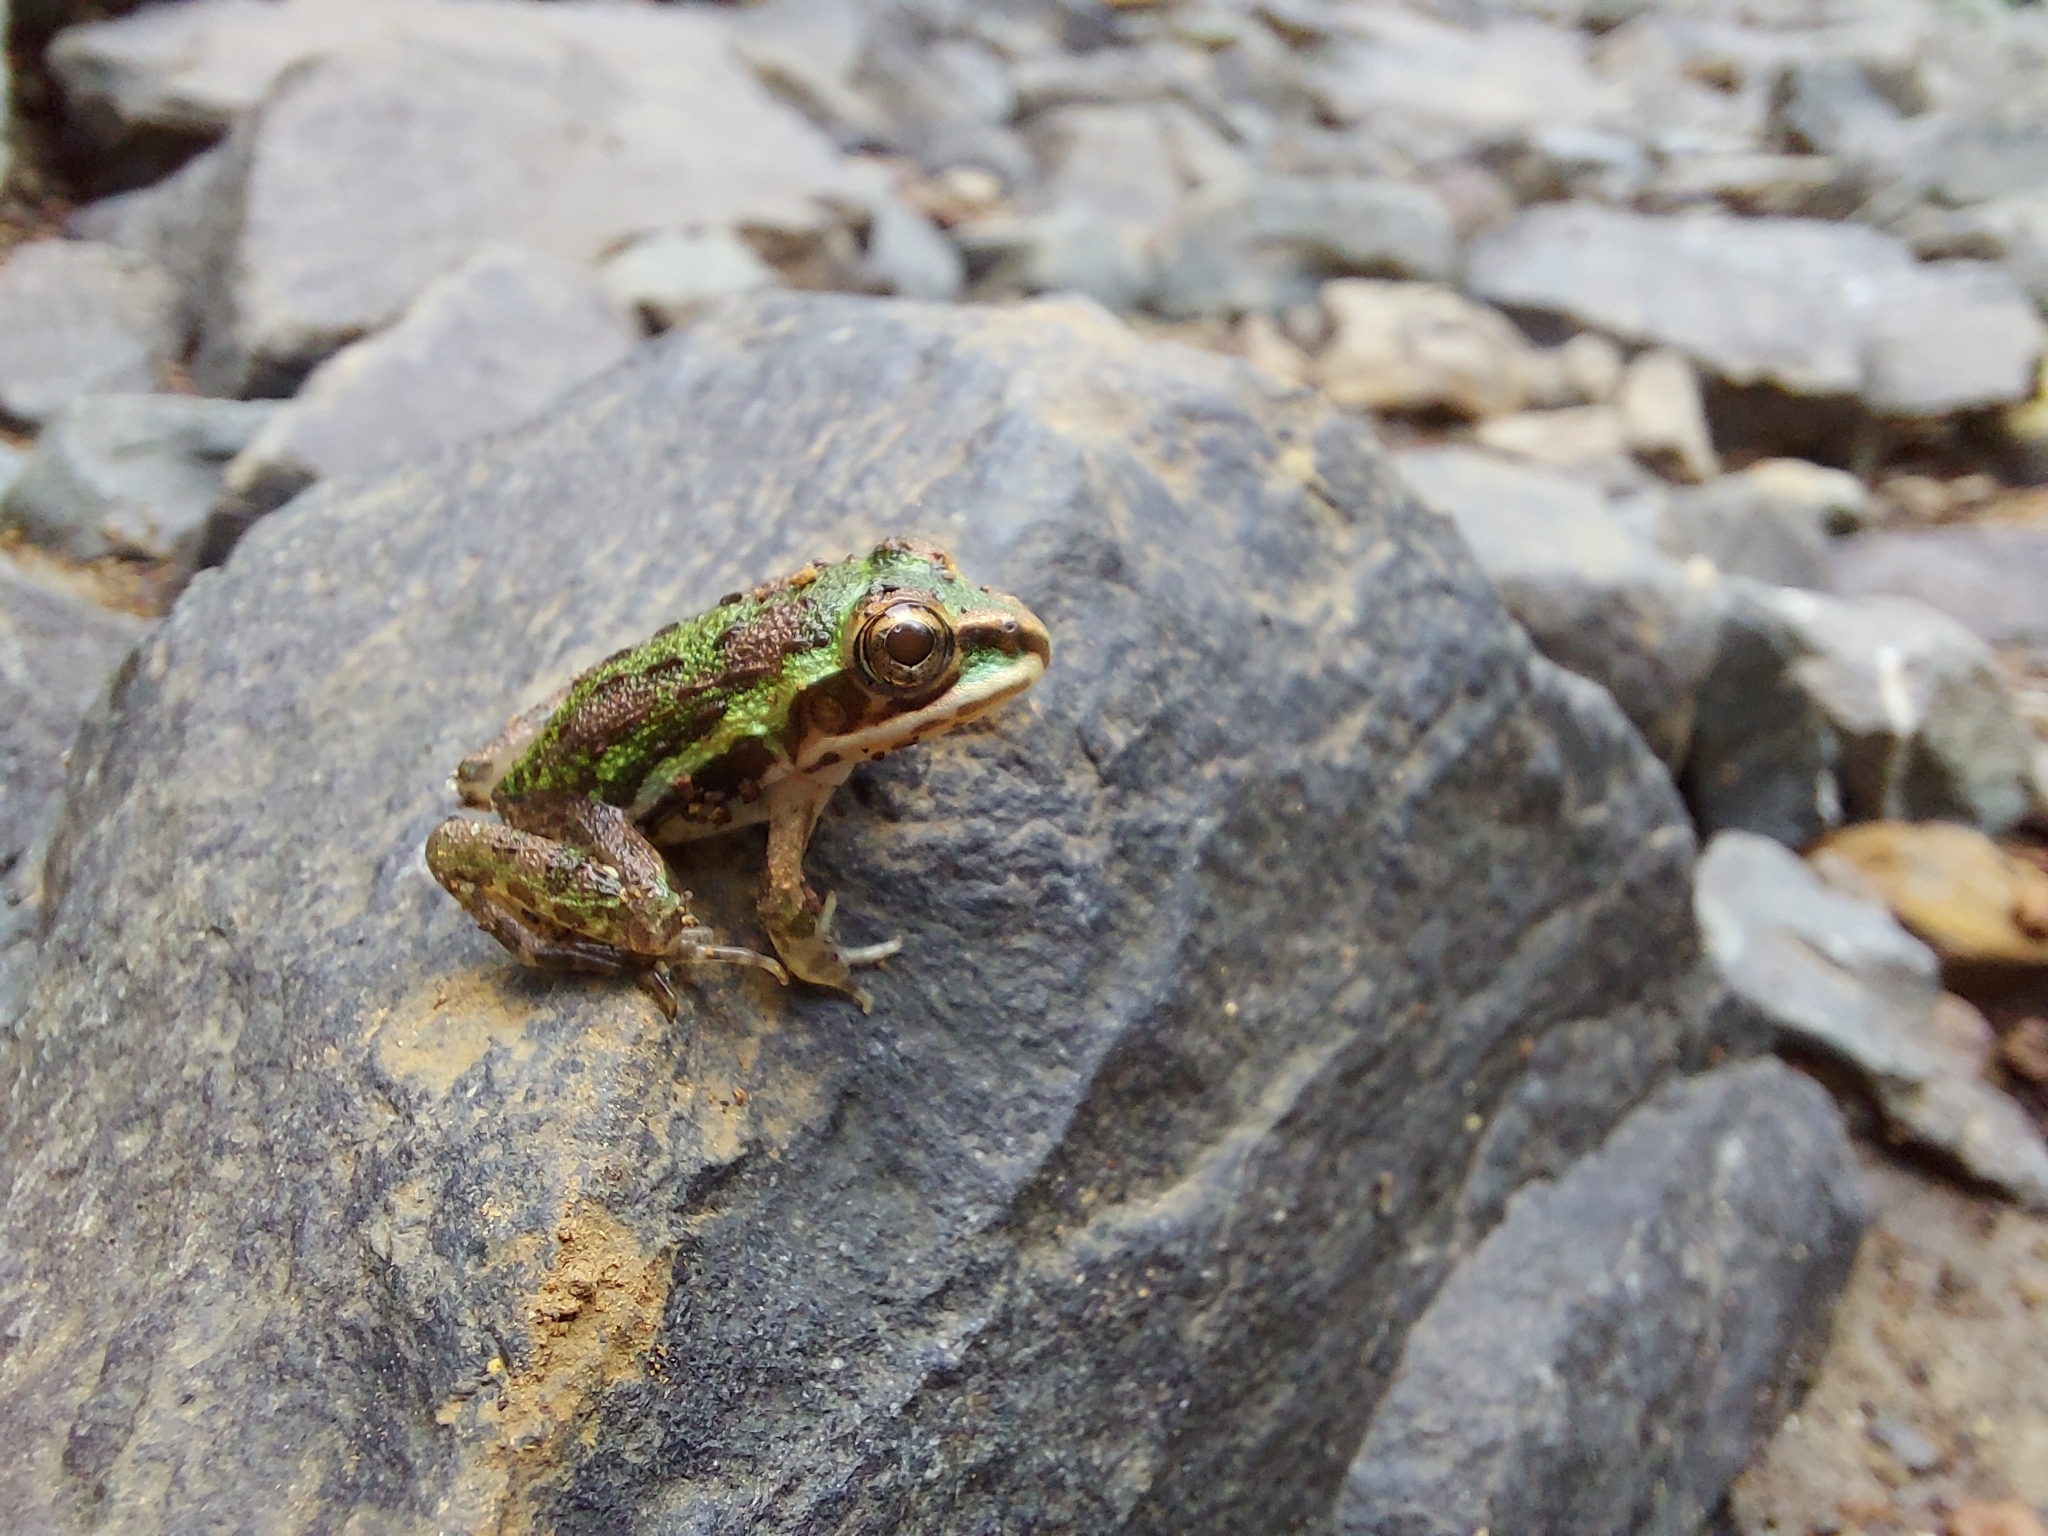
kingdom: Animalia
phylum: Chordata
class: Amphibia
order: Anura
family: Dicroglossidae
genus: Hoplobatrachus
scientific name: Hoplobatrachus tigerinus
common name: Indian bullfrog
